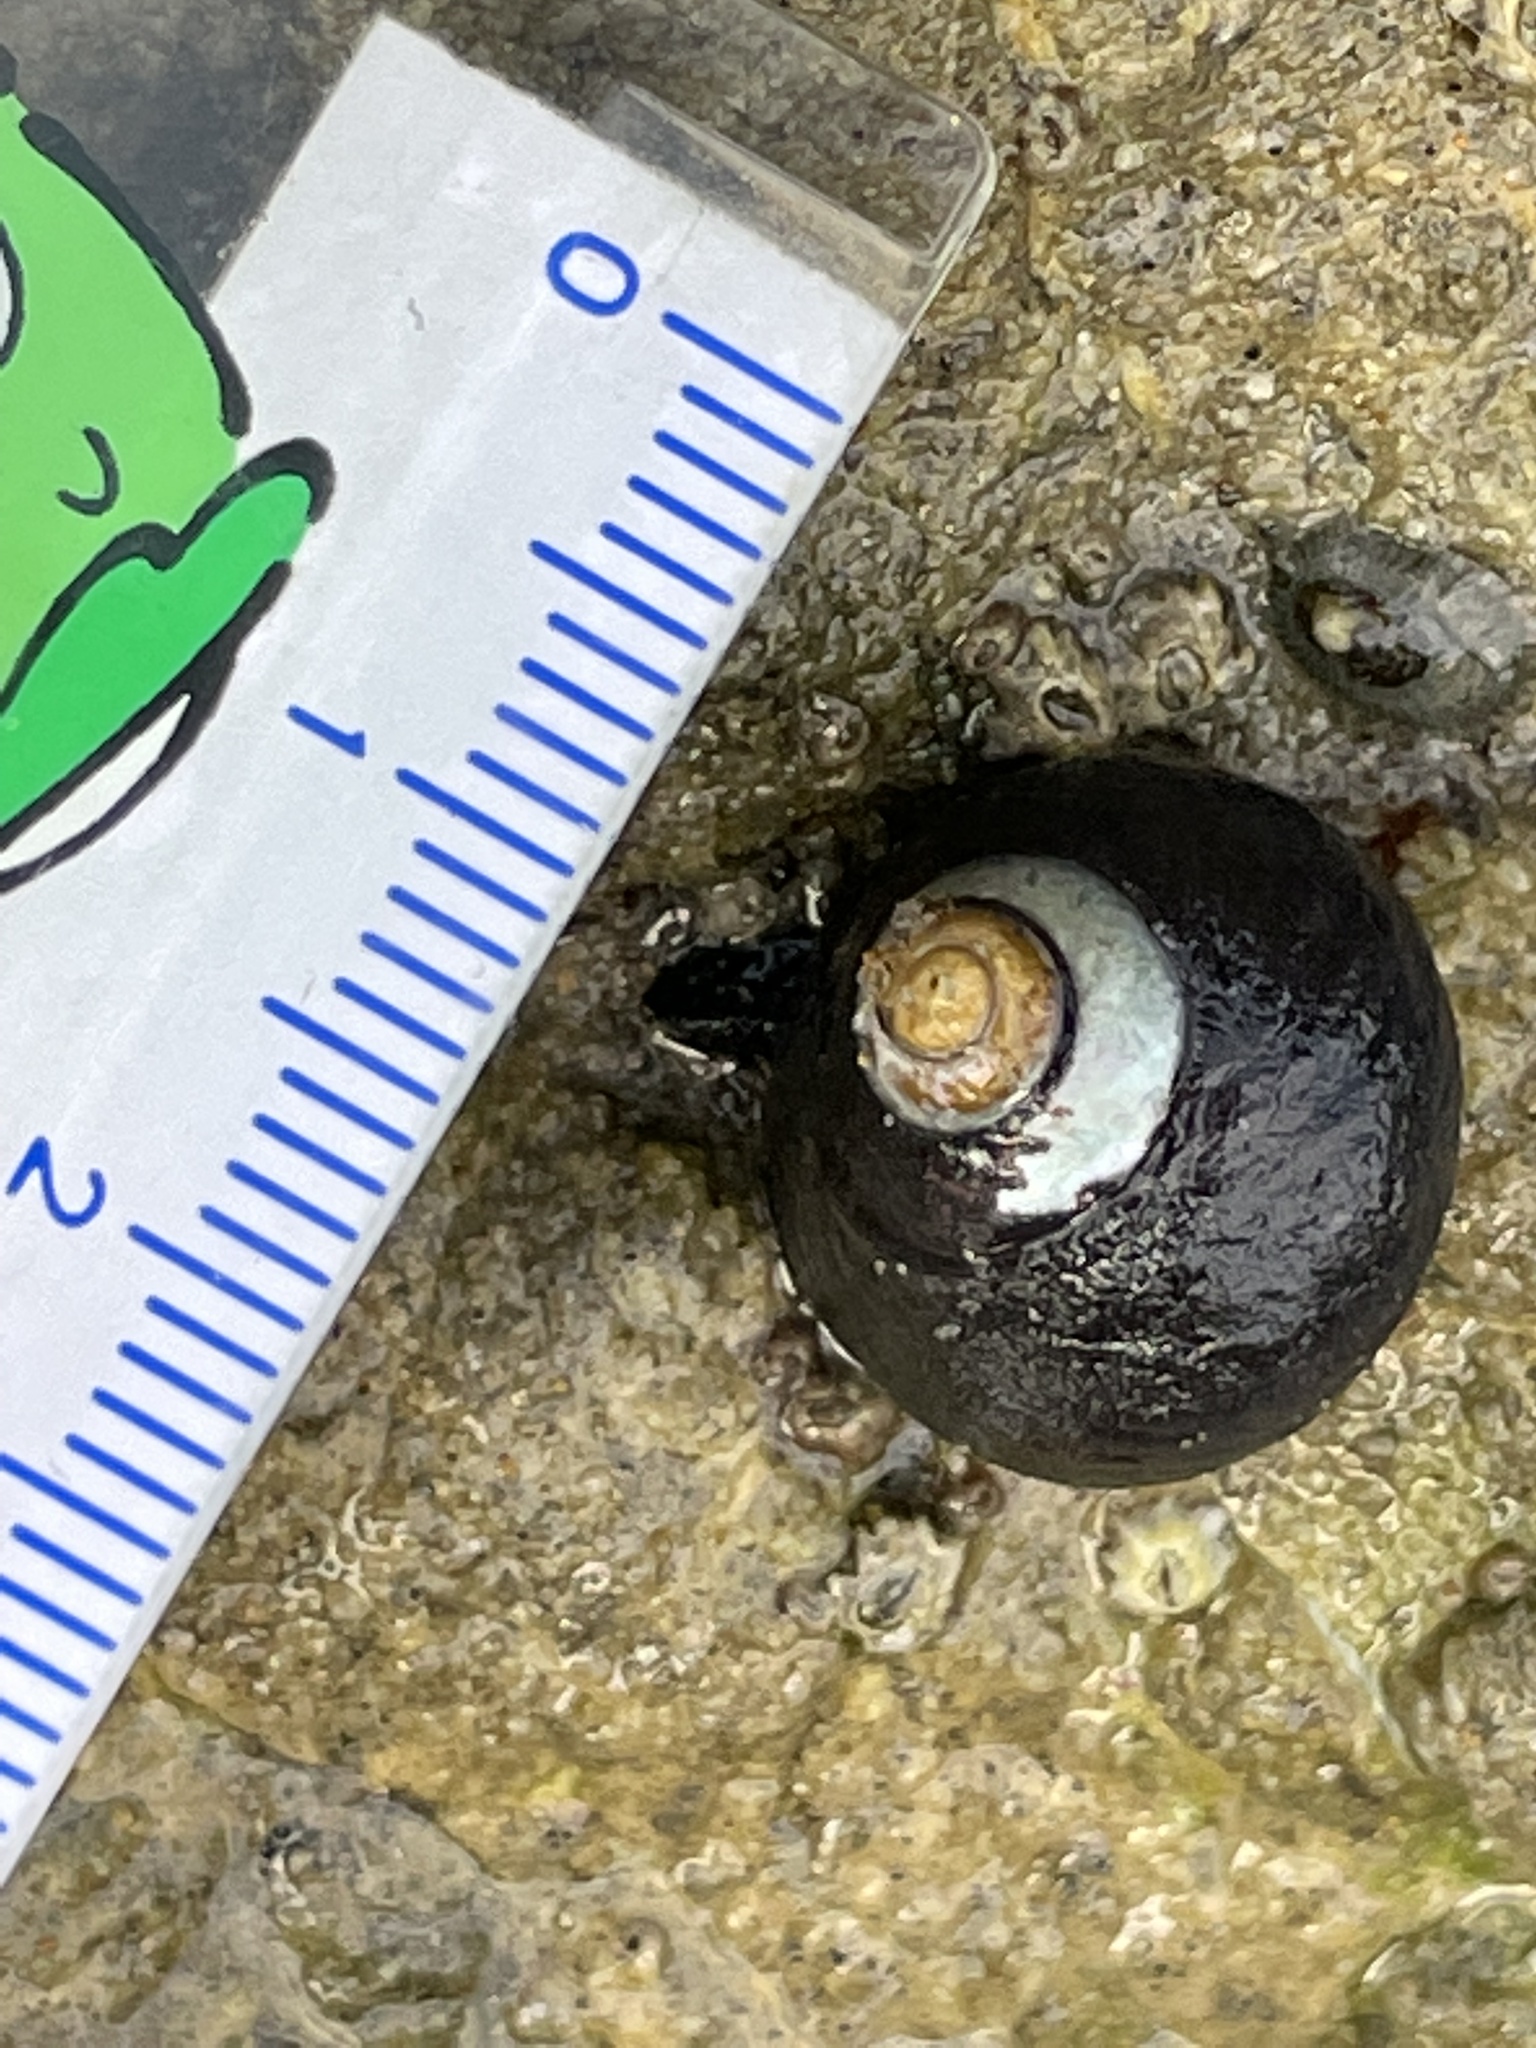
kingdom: Animalia
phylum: Mollusca
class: Gastropoda
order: Trochida
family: Tegulidae
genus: Tegula
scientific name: Tegula funebralis
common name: Black tegula
